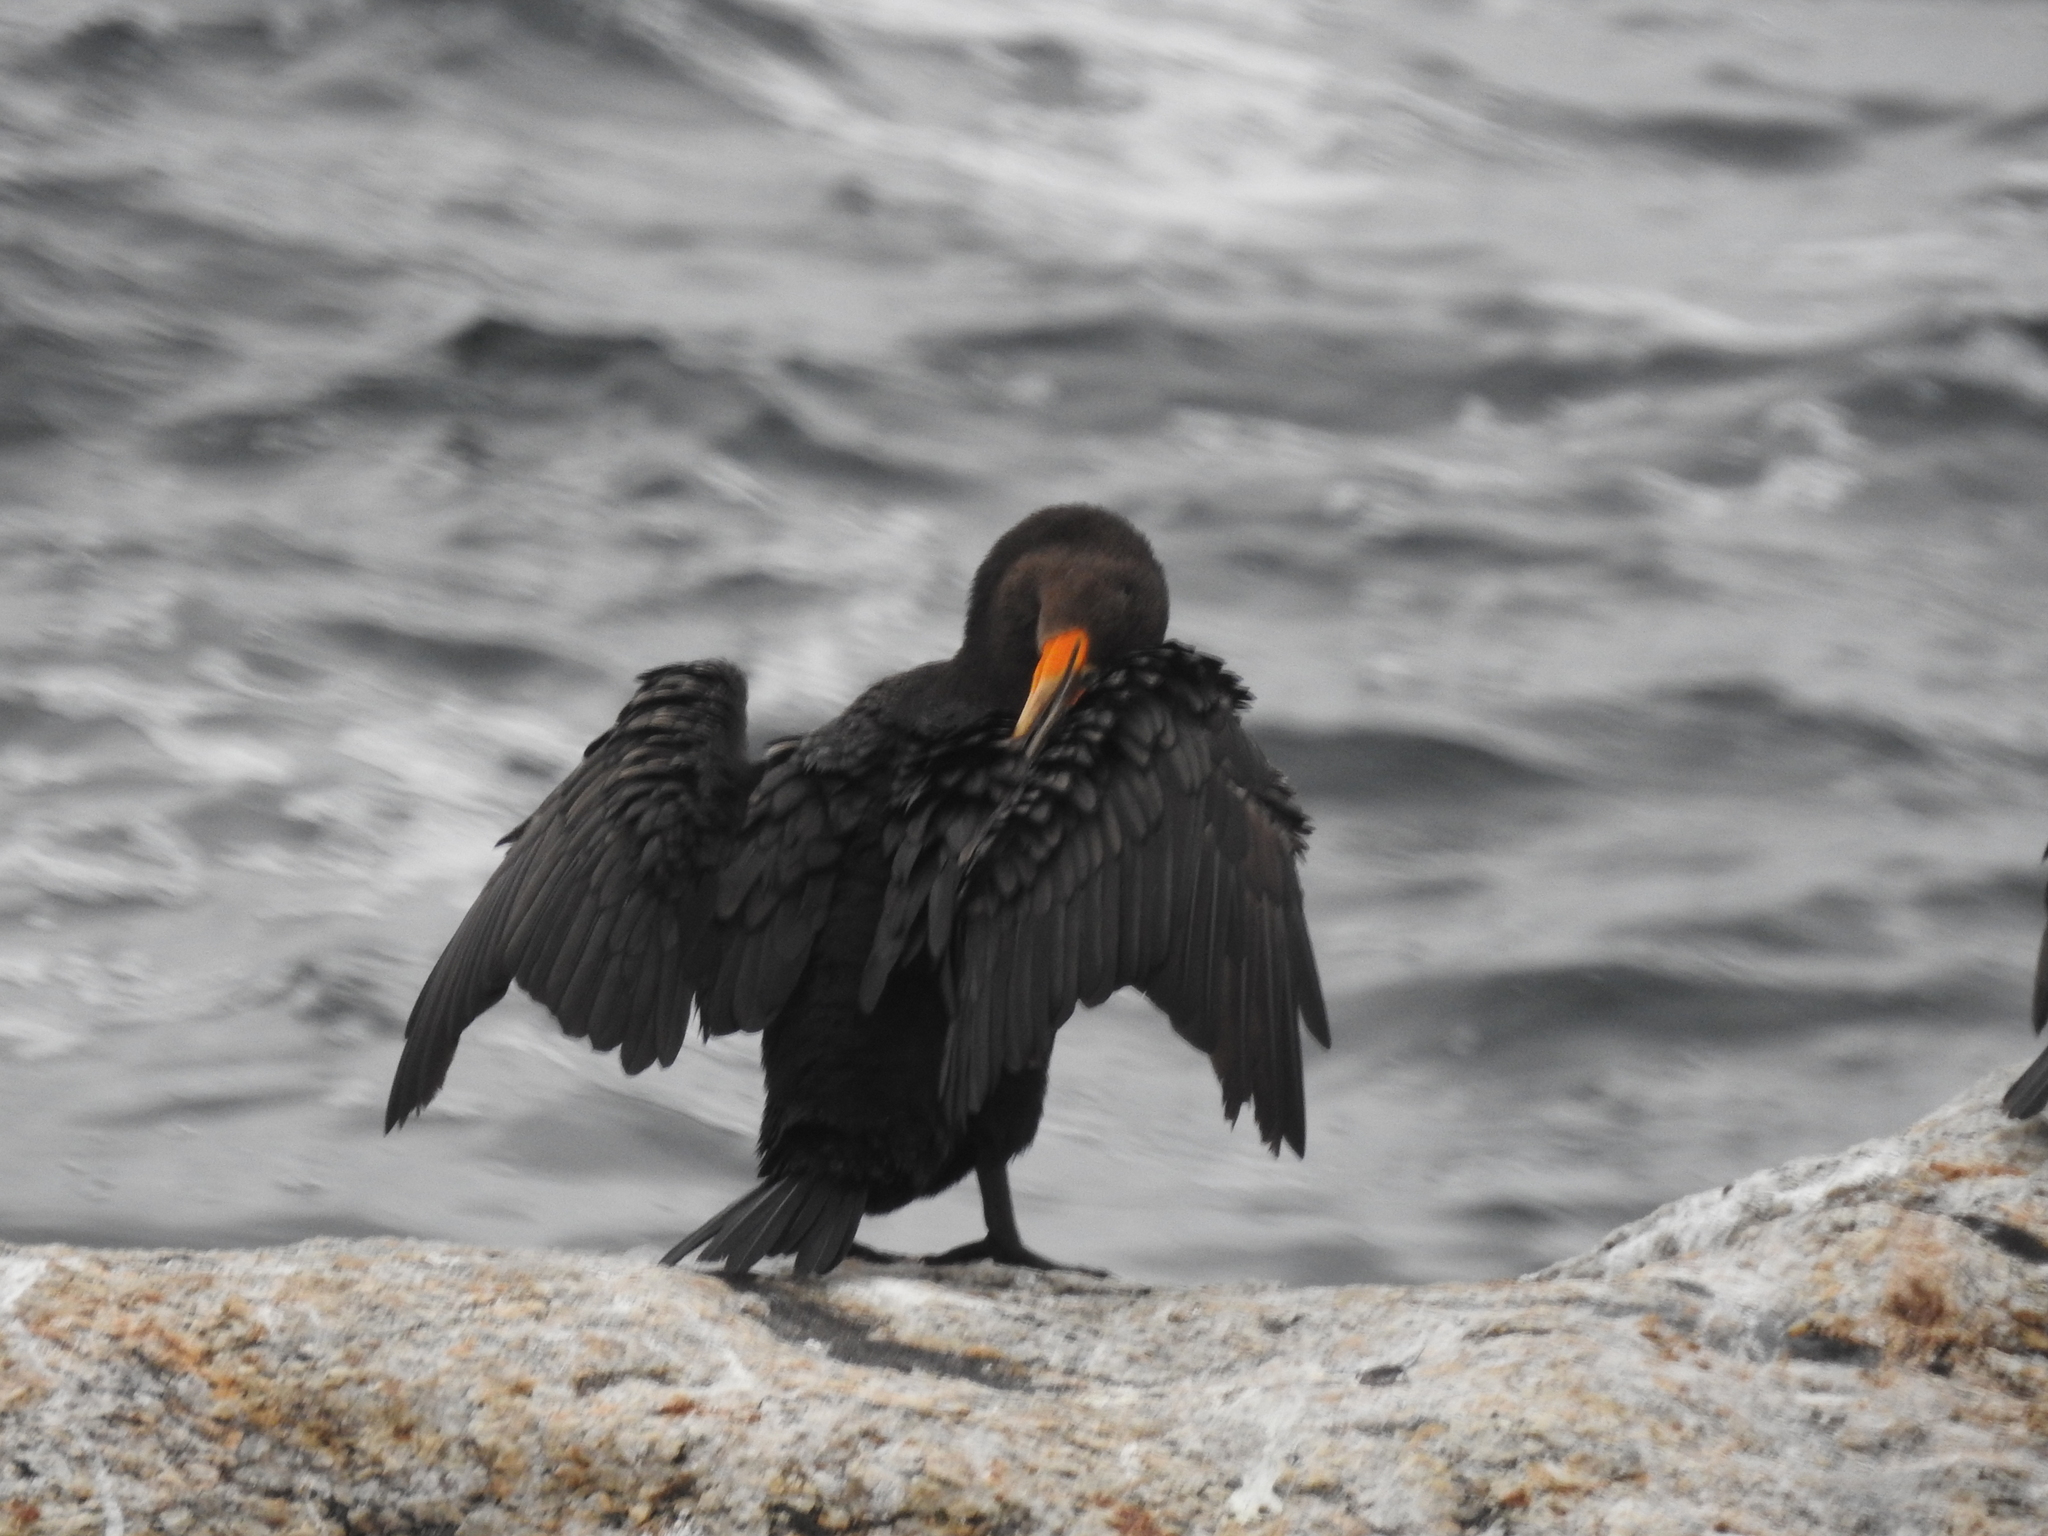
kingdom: Animalia
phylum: Chordata
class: Aves
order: Suliformes
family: Phalacrocoracidae
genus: Phalacrocorax
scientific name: Phalacrocorax auritus
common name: Double-crested cormorant
